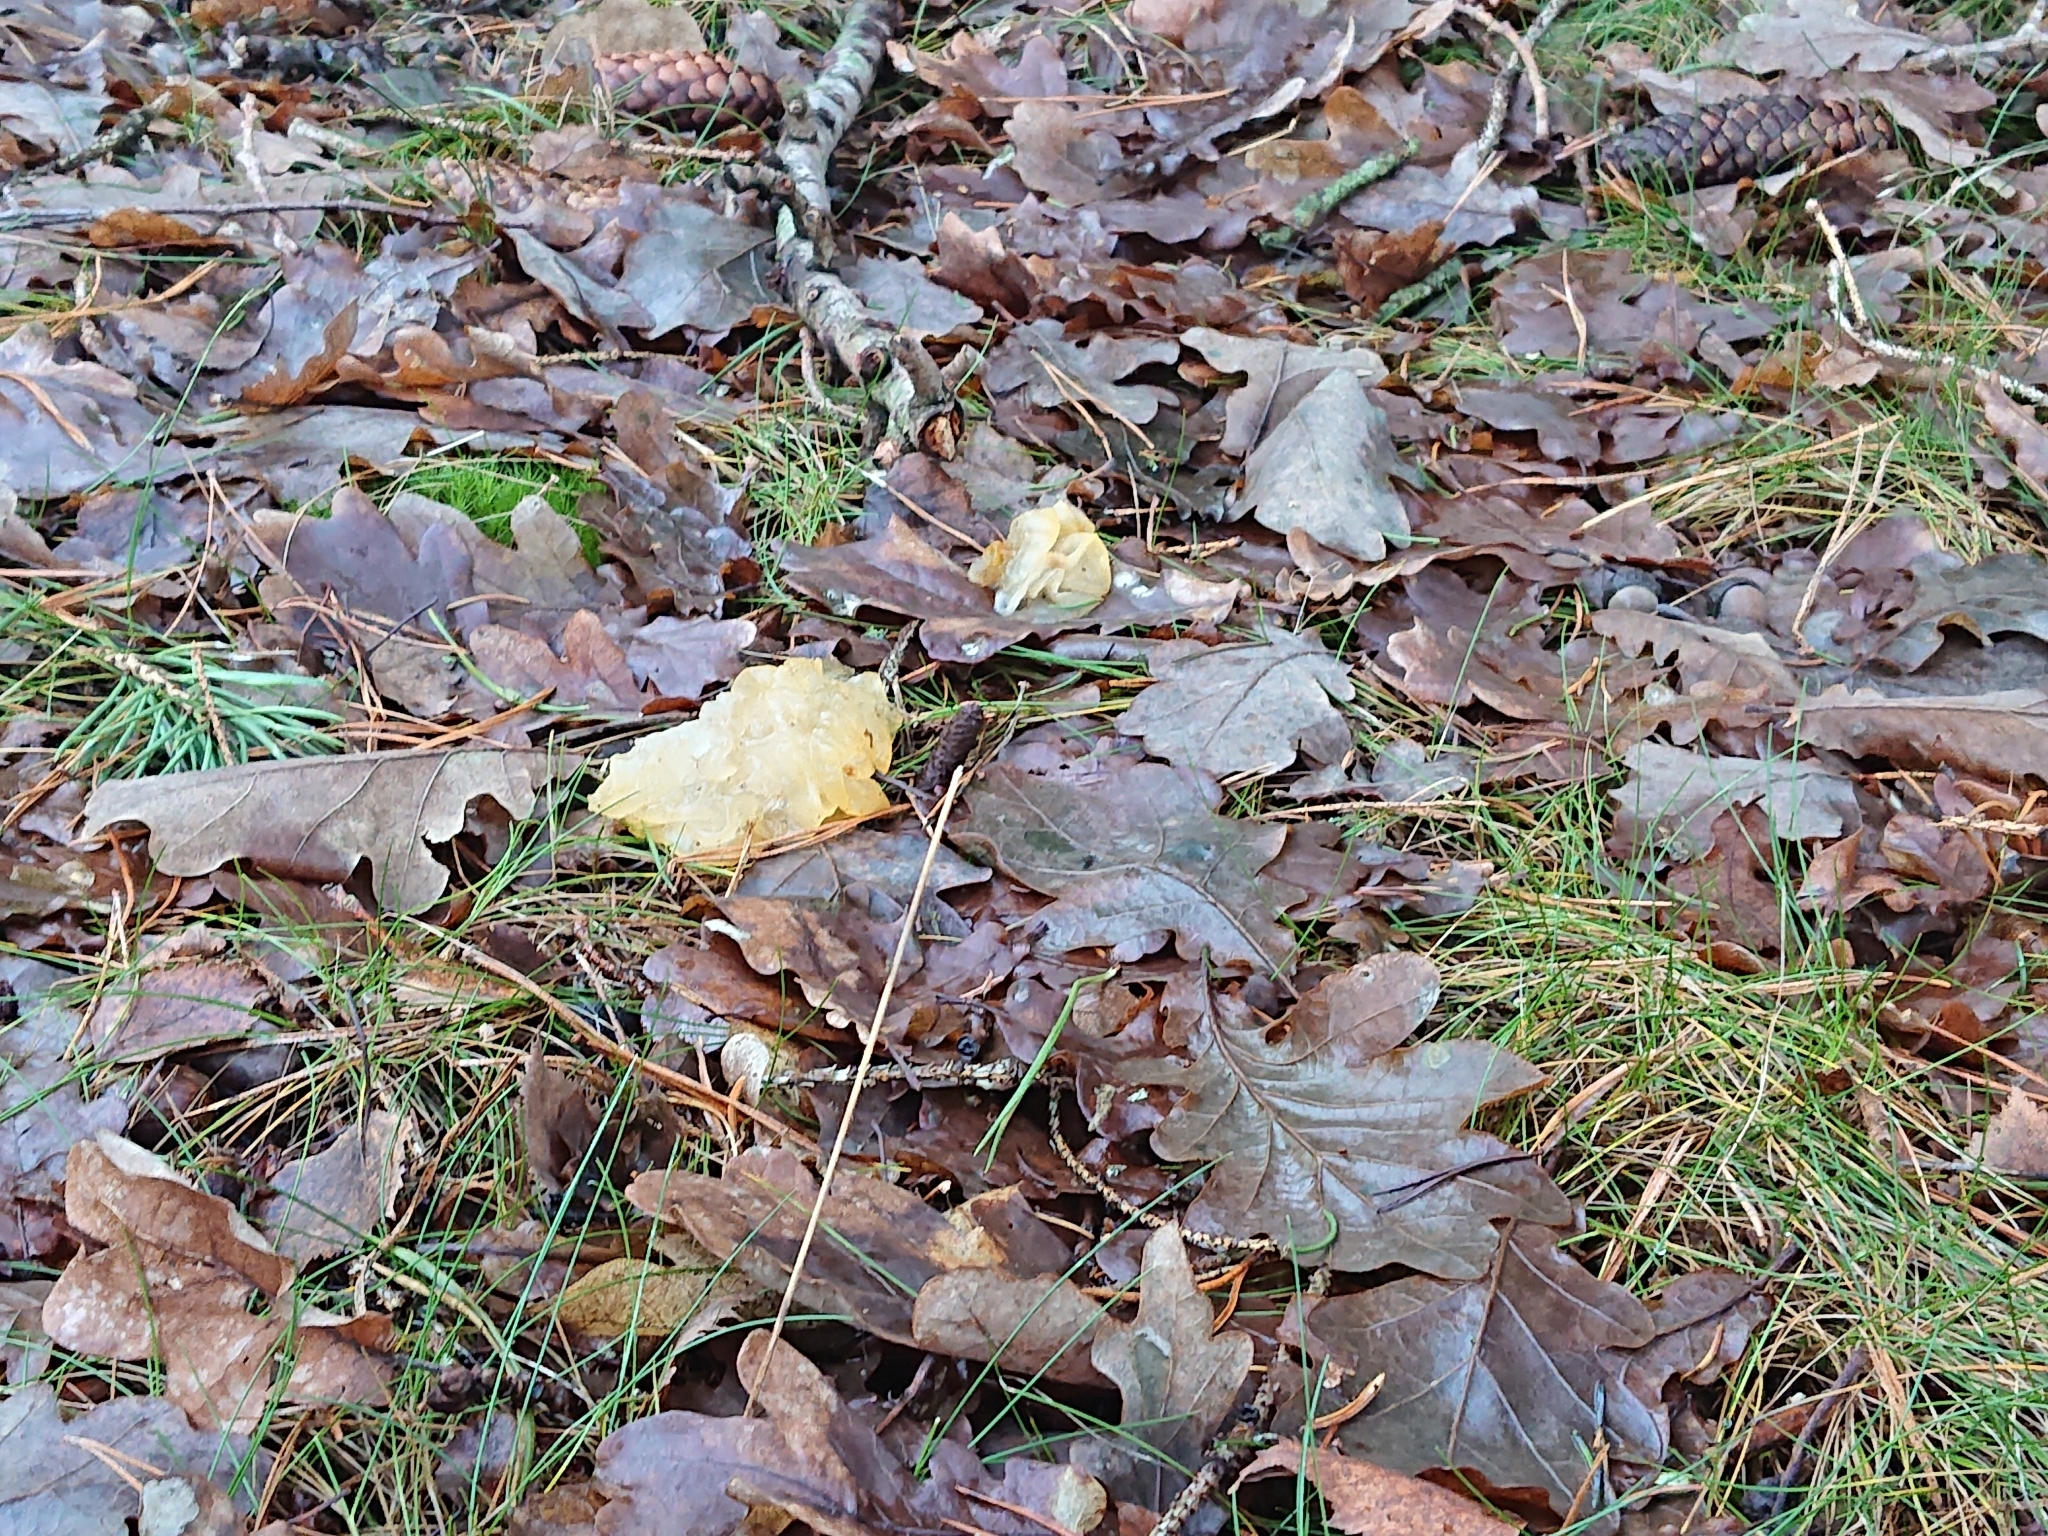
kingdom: Fungi
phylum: Basidiomycota
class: Tremellomycetes
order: Tremellales
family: Tremellaceae
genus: Tremella
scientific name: Tremella mesenterica
